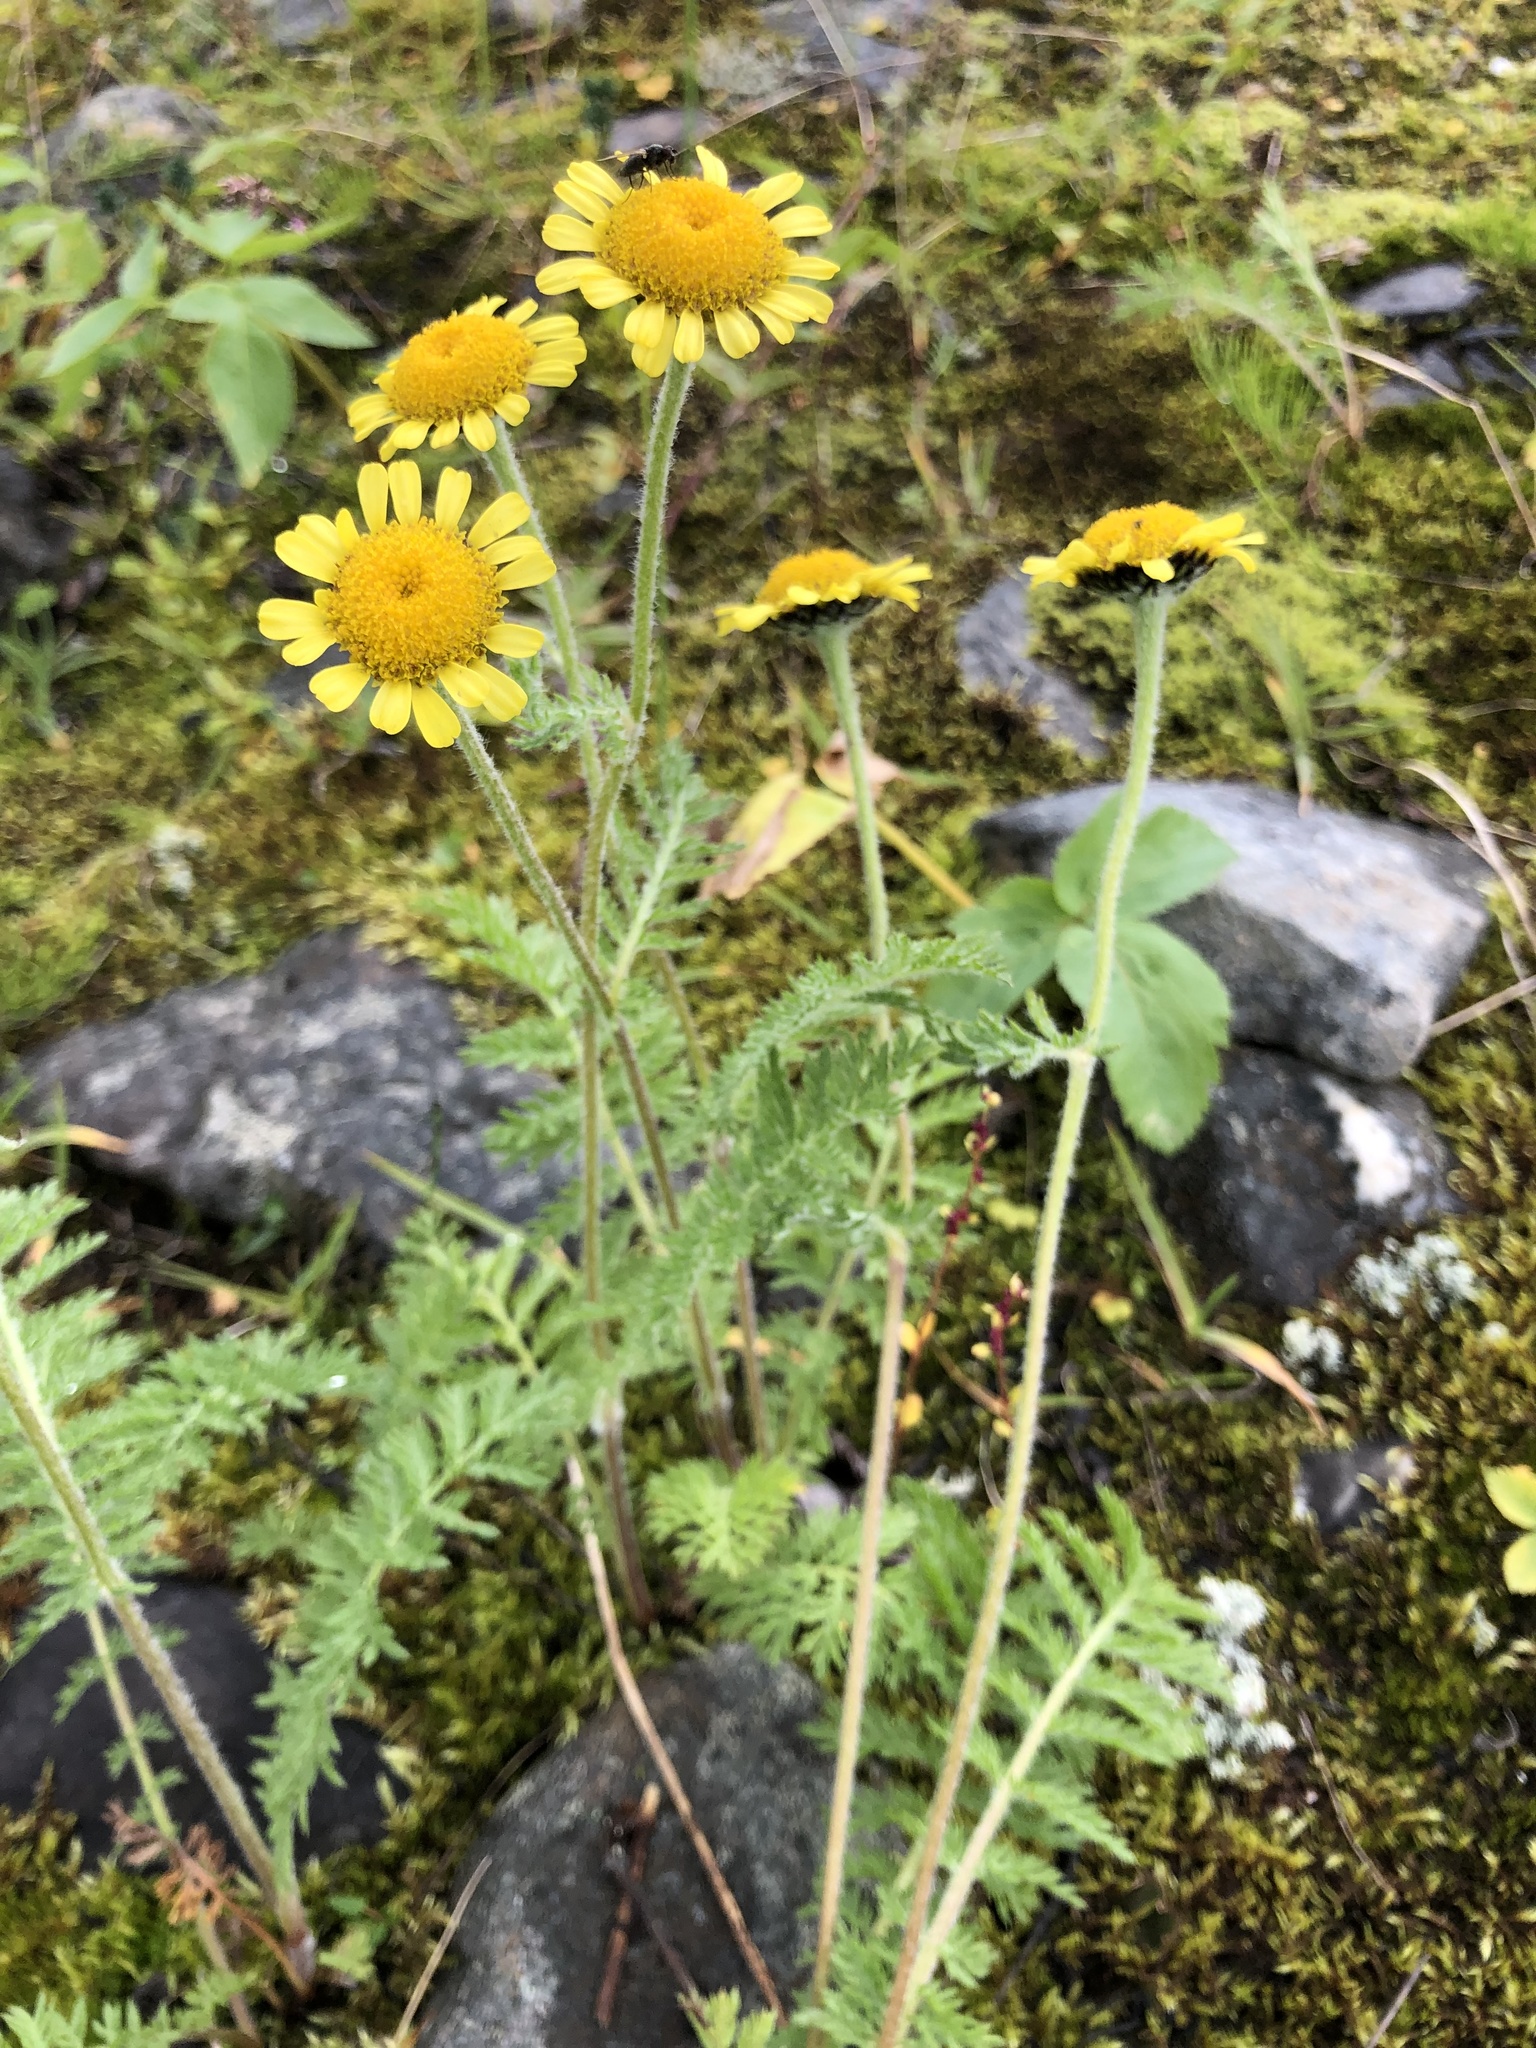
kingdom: Plantae
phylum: Tracheophyta
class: Magnoliopsida
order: Asterales
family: Asteraceae
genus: Tanacetum
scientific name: Tanacetum bipinnatum
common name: Dwarf tansy
